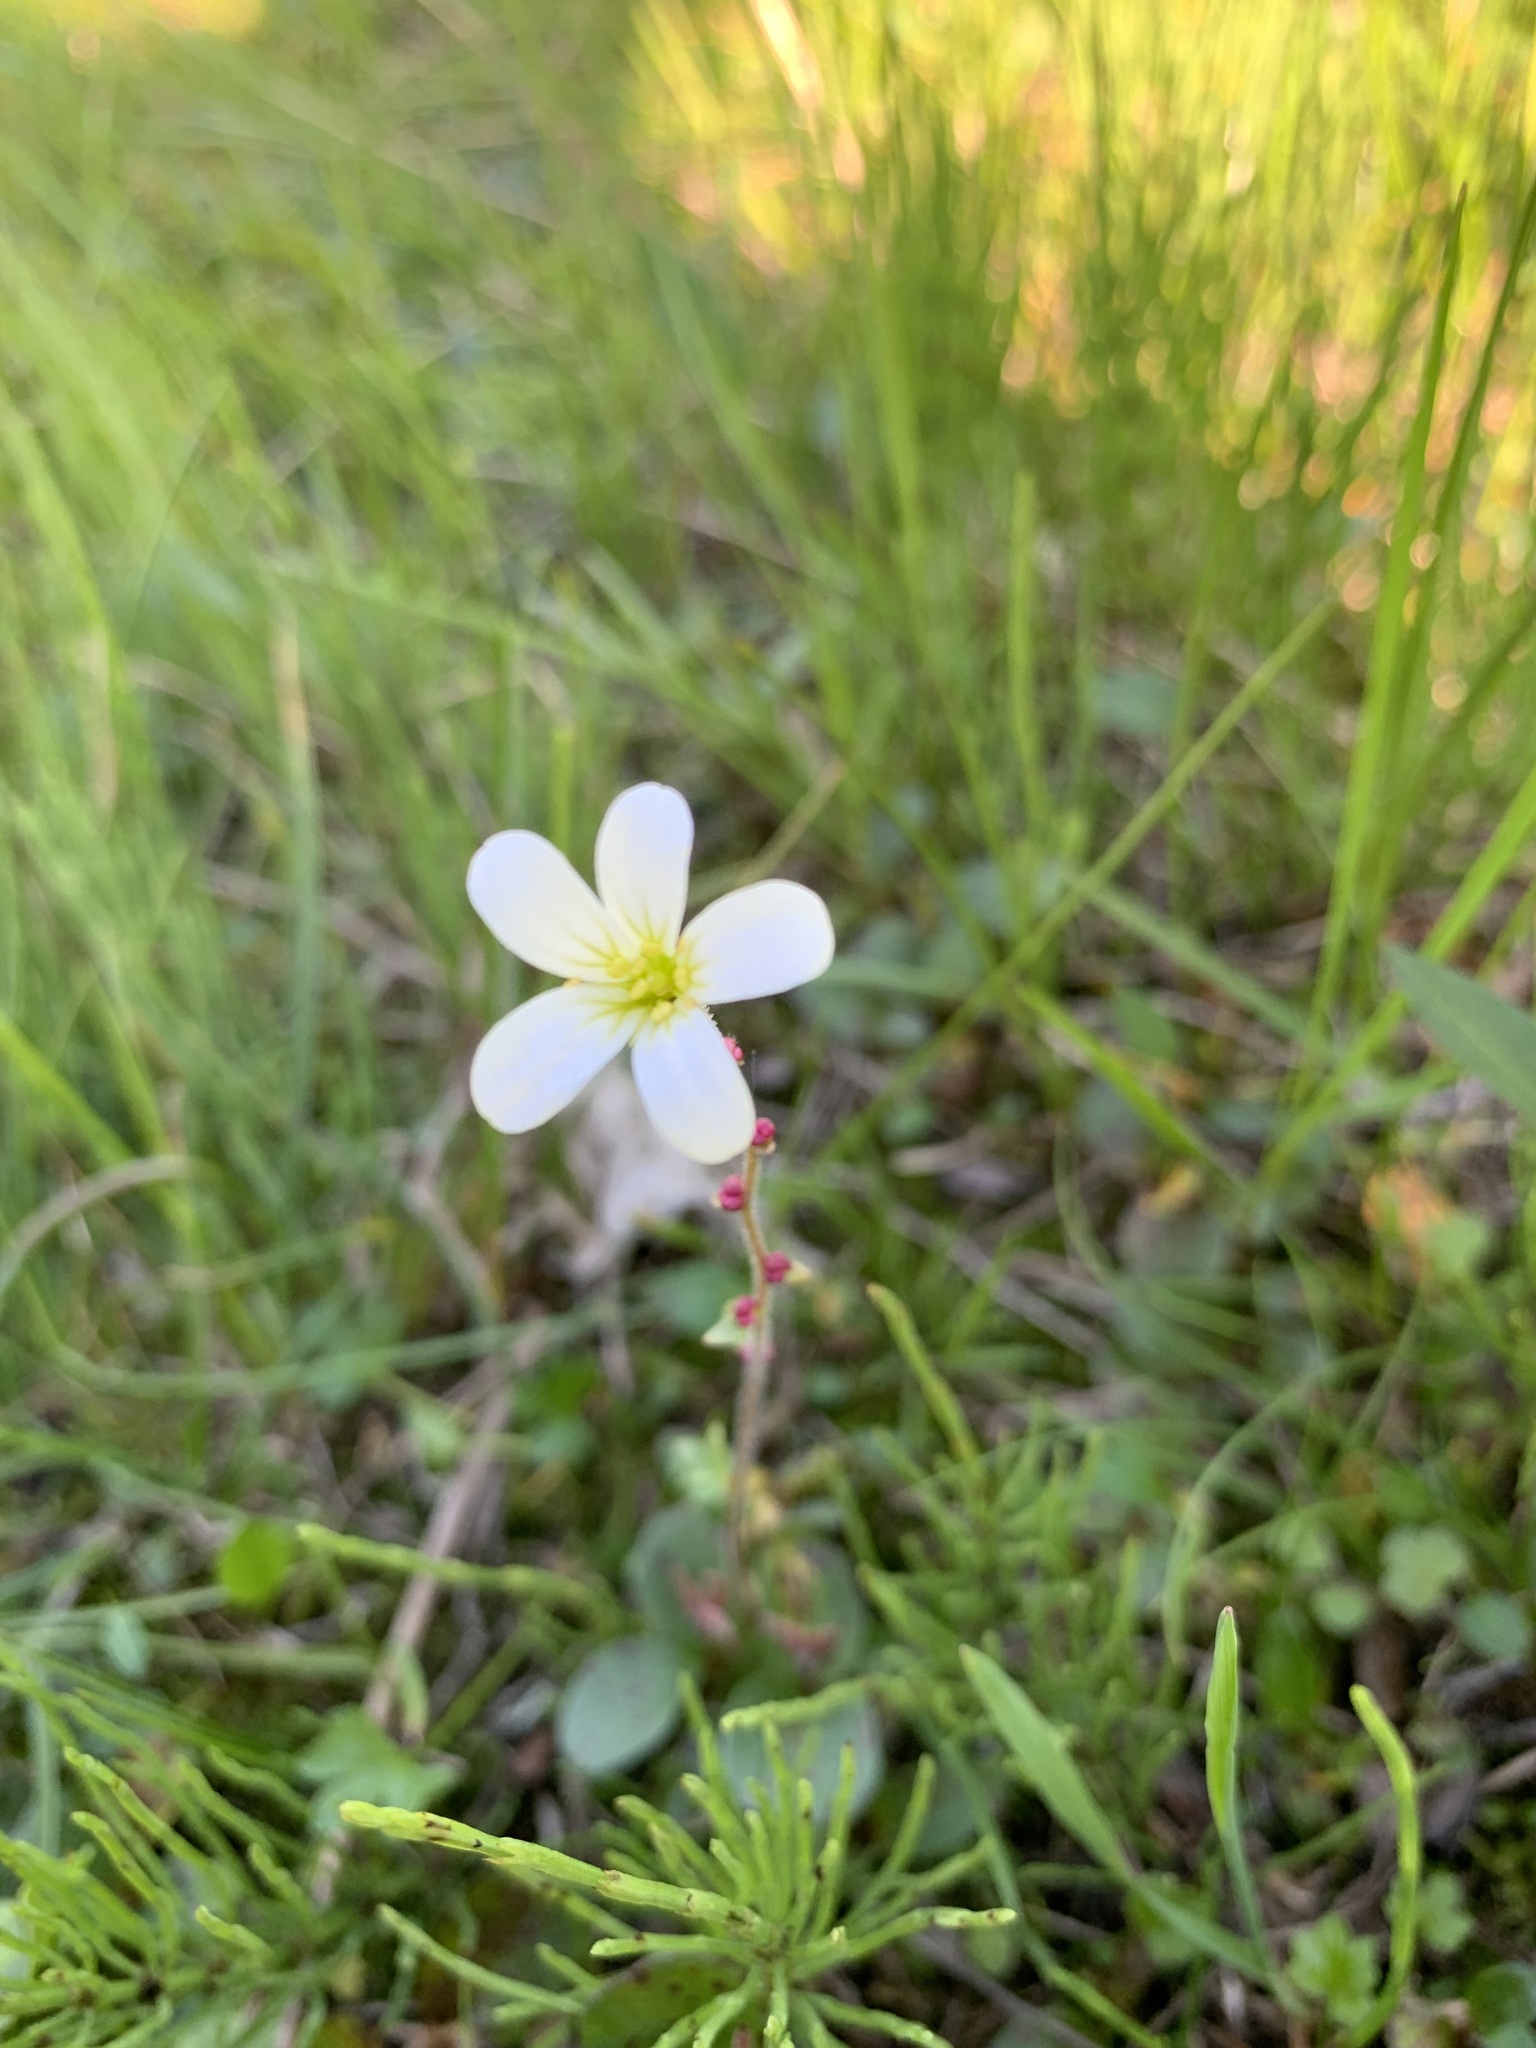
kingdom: Plantae
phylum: Tracheophyta
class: Magnoliopsida
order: Saxifragales
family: Saxifragaceae
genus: Saxifraga
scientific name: Saxifraga cernua
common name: Drooping saxifrage
